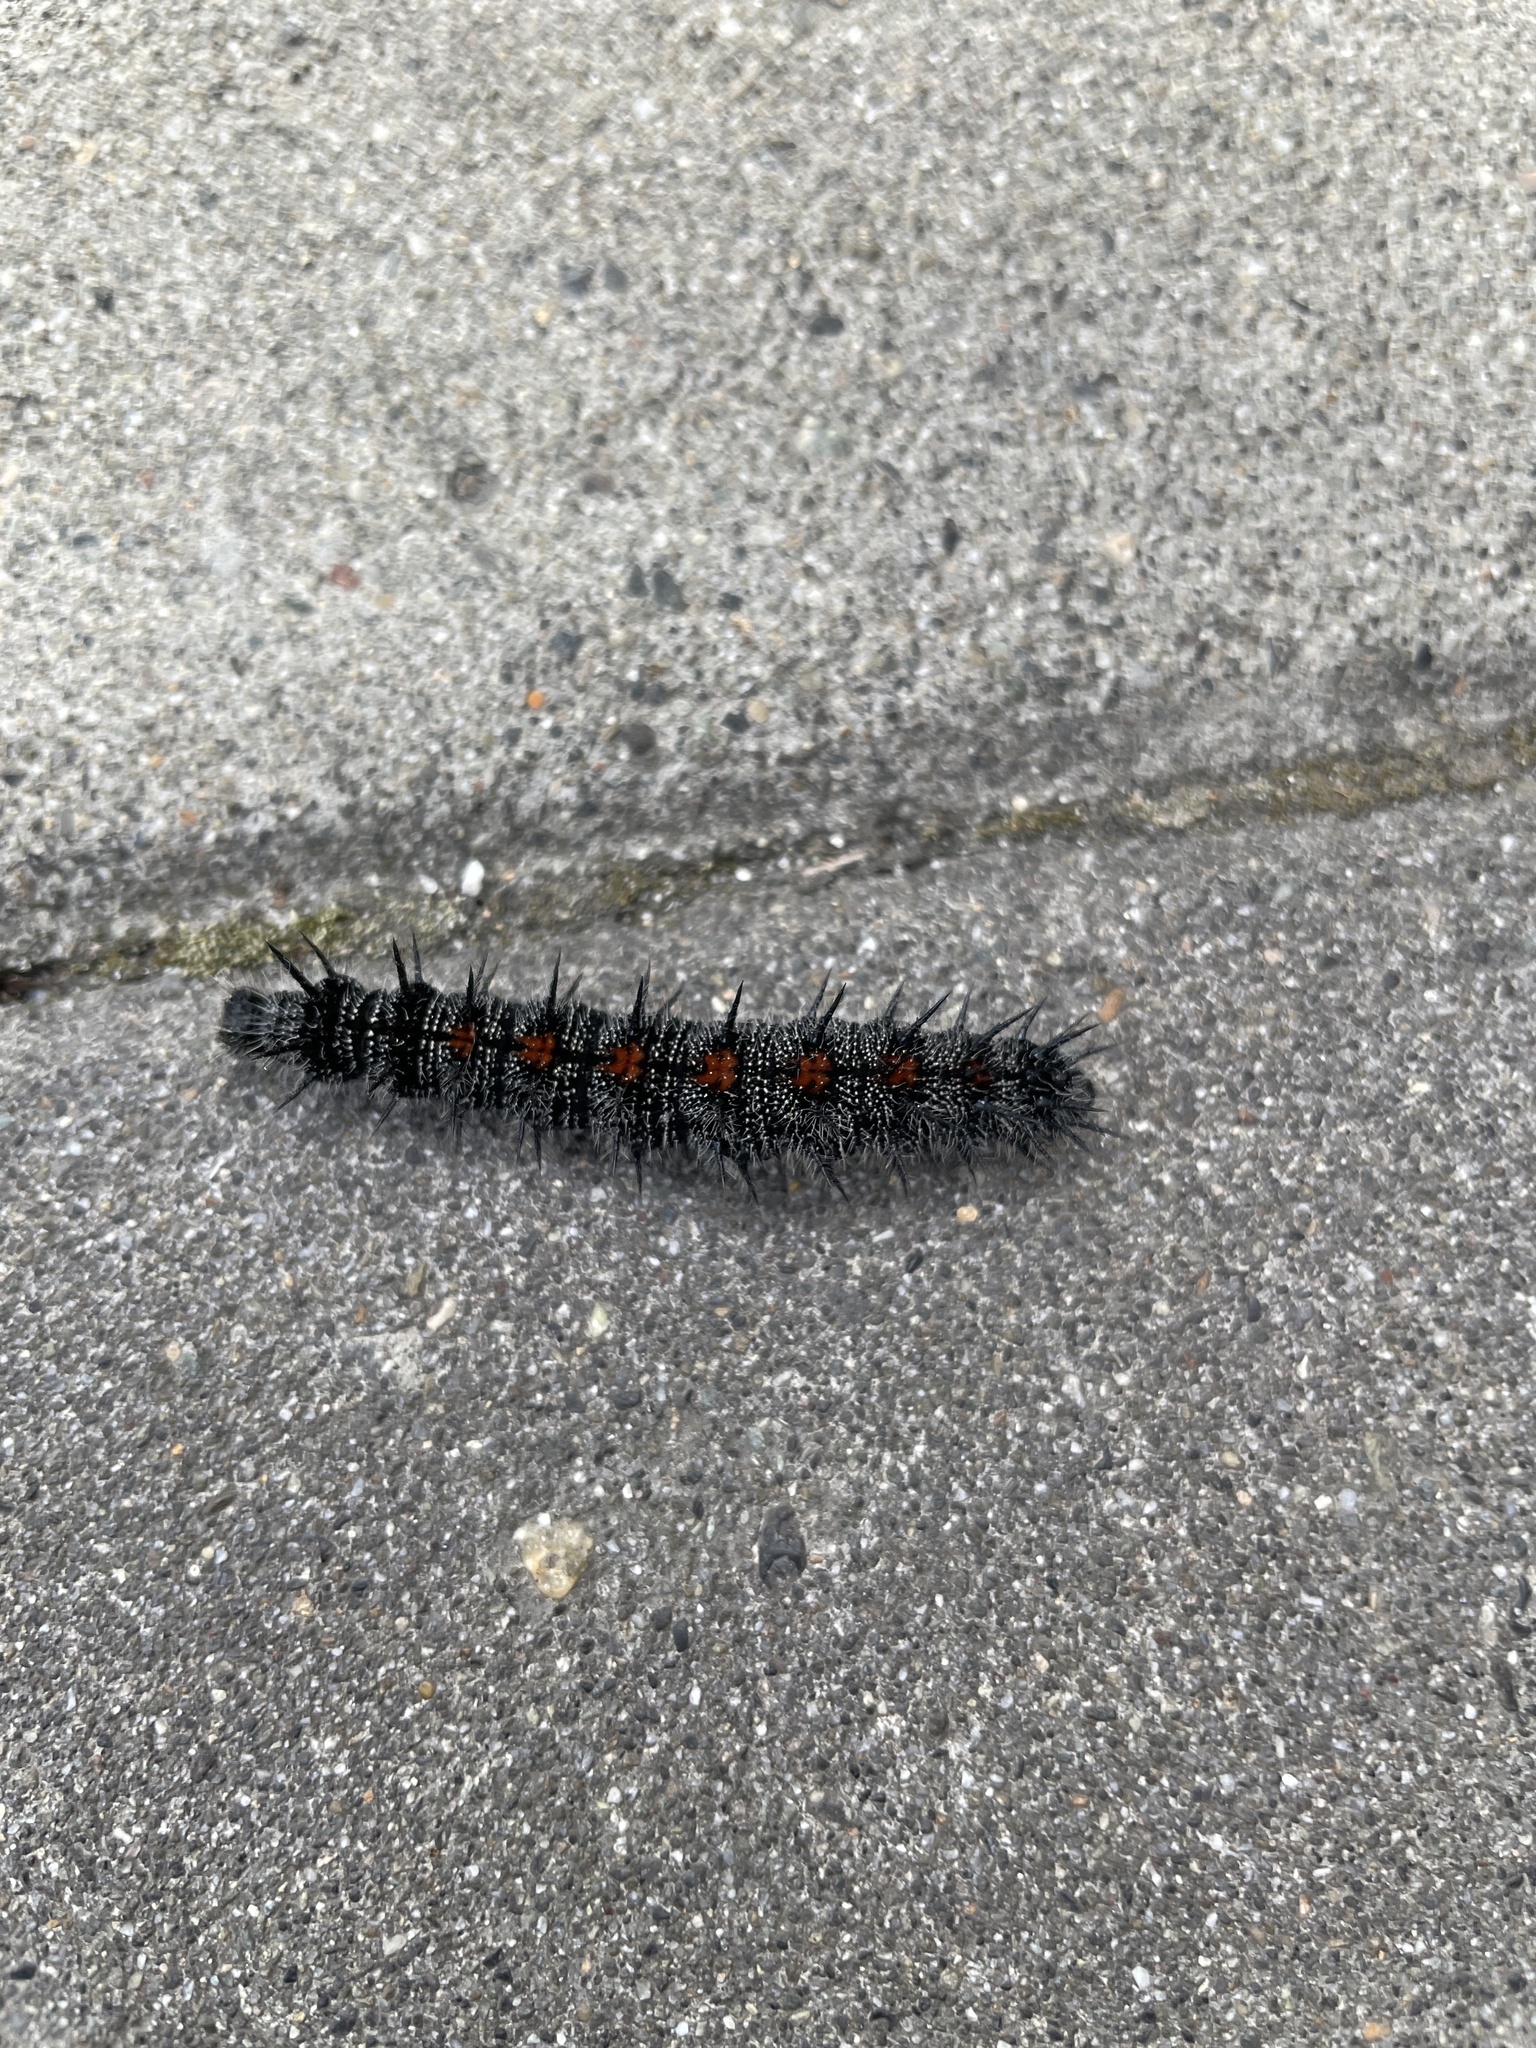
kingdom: Animalia
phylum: Arthropoda
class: Insecta
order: Lepidoptera
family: Nymphalidae
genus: Nymphalis
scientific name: Nymphalis antiopa
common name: Camberwell beauty
